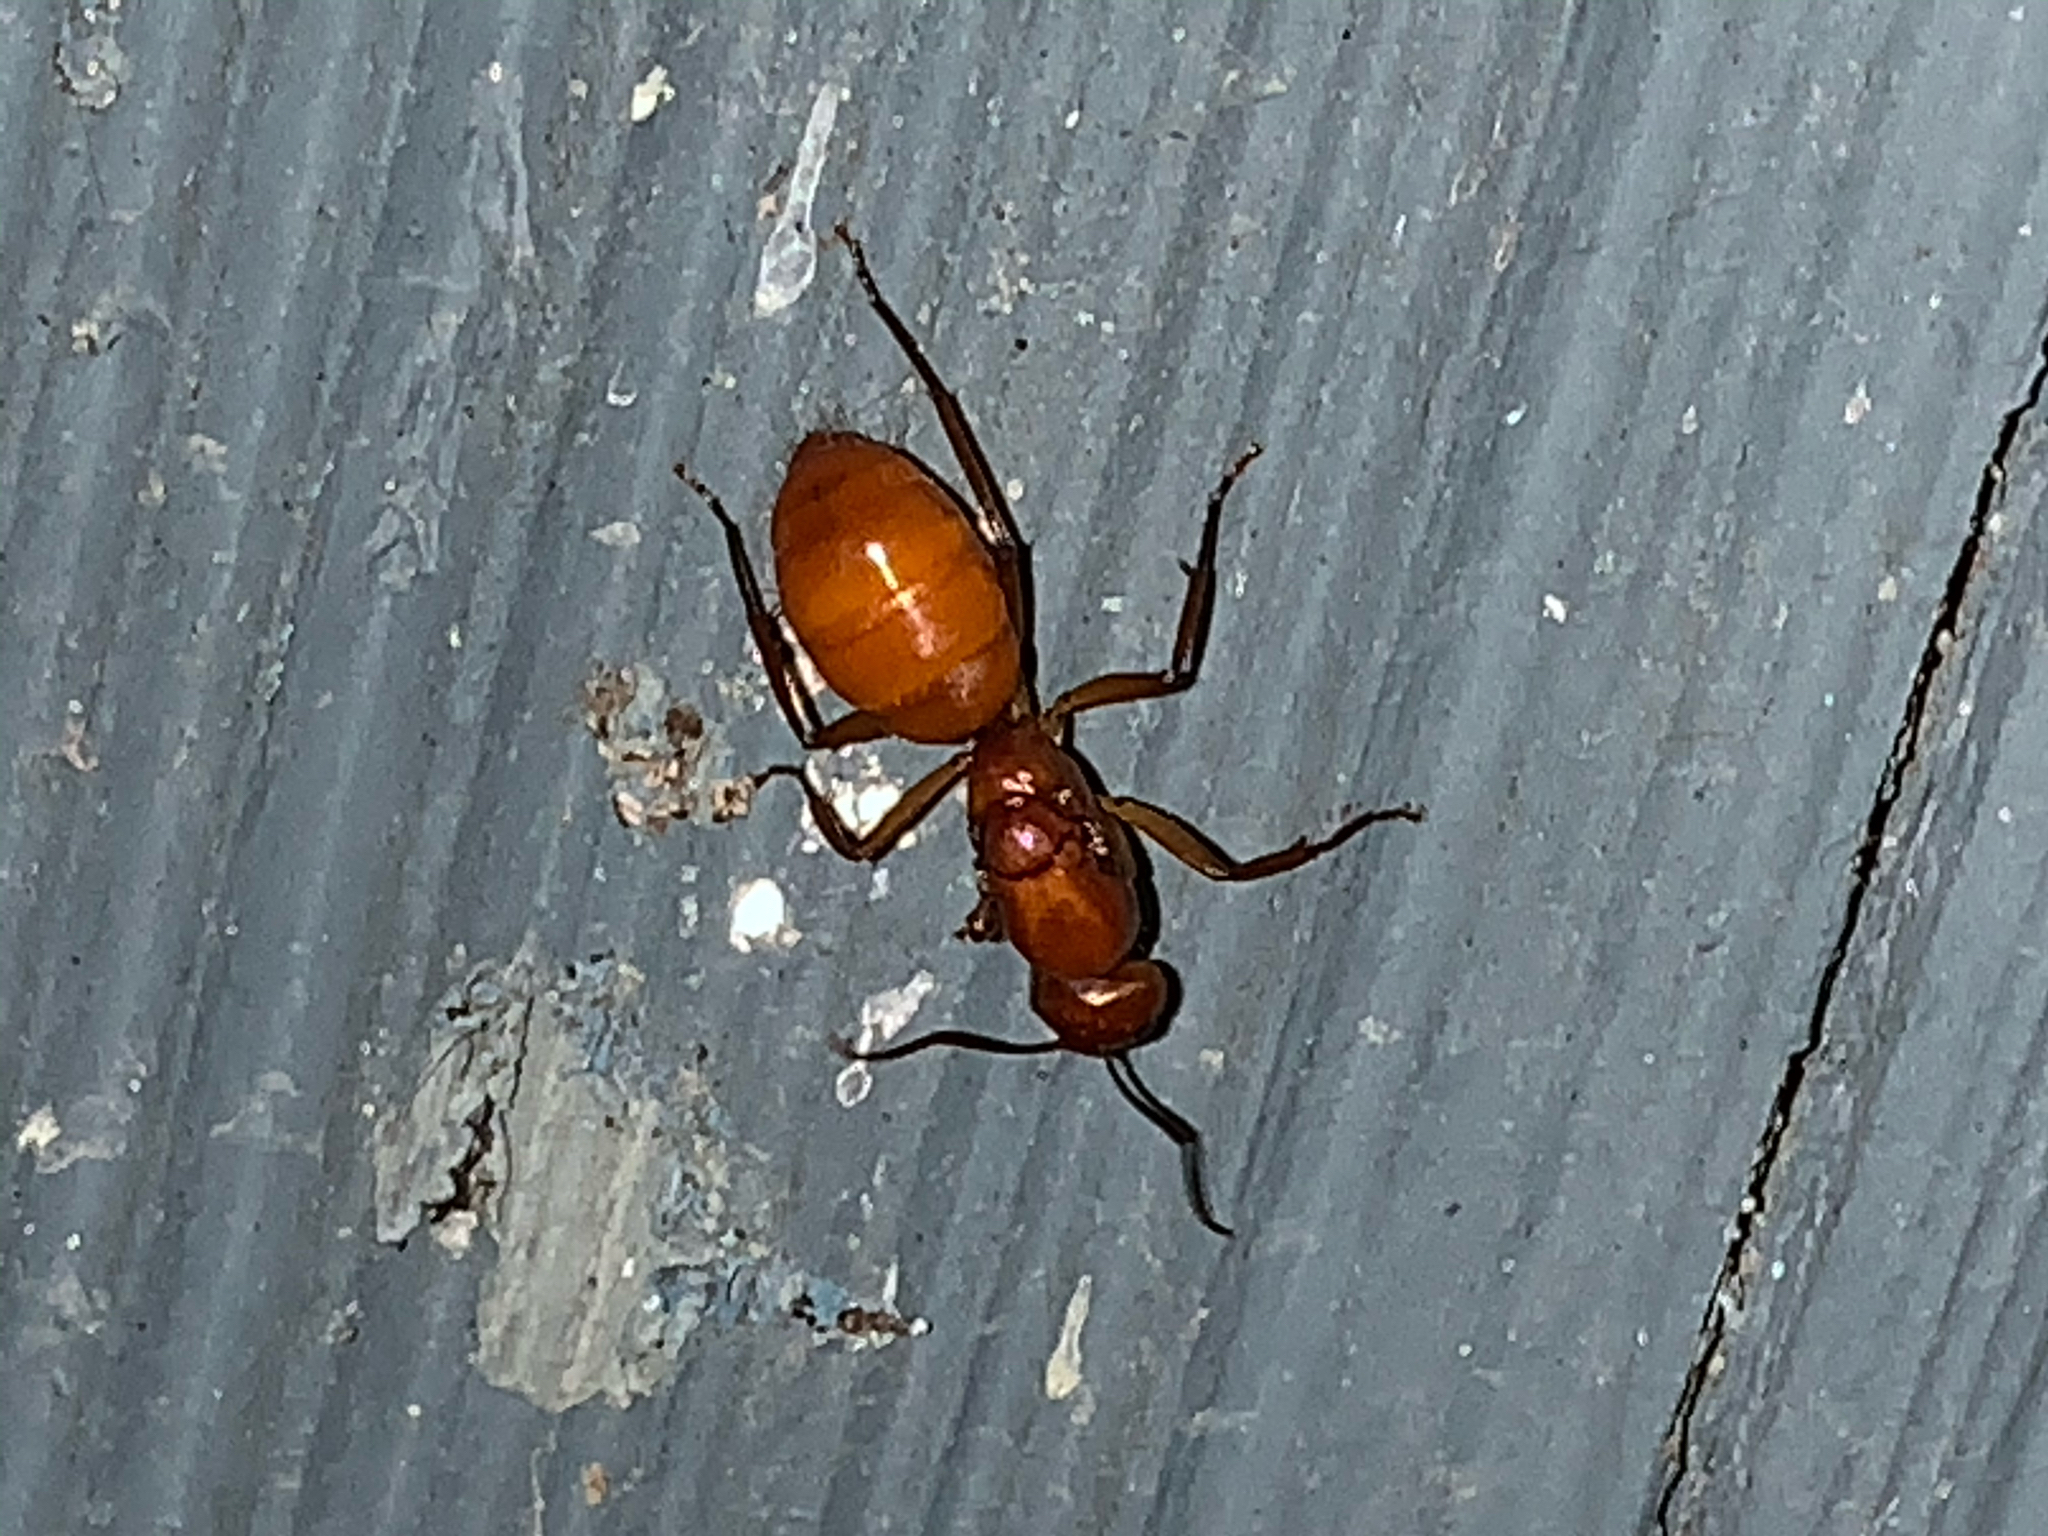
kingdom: Animalia
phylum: Arthropoda
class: Insecta
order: Hymenoptera
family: Formicidae
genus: Camponotus
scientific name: Camponotus castaneus
